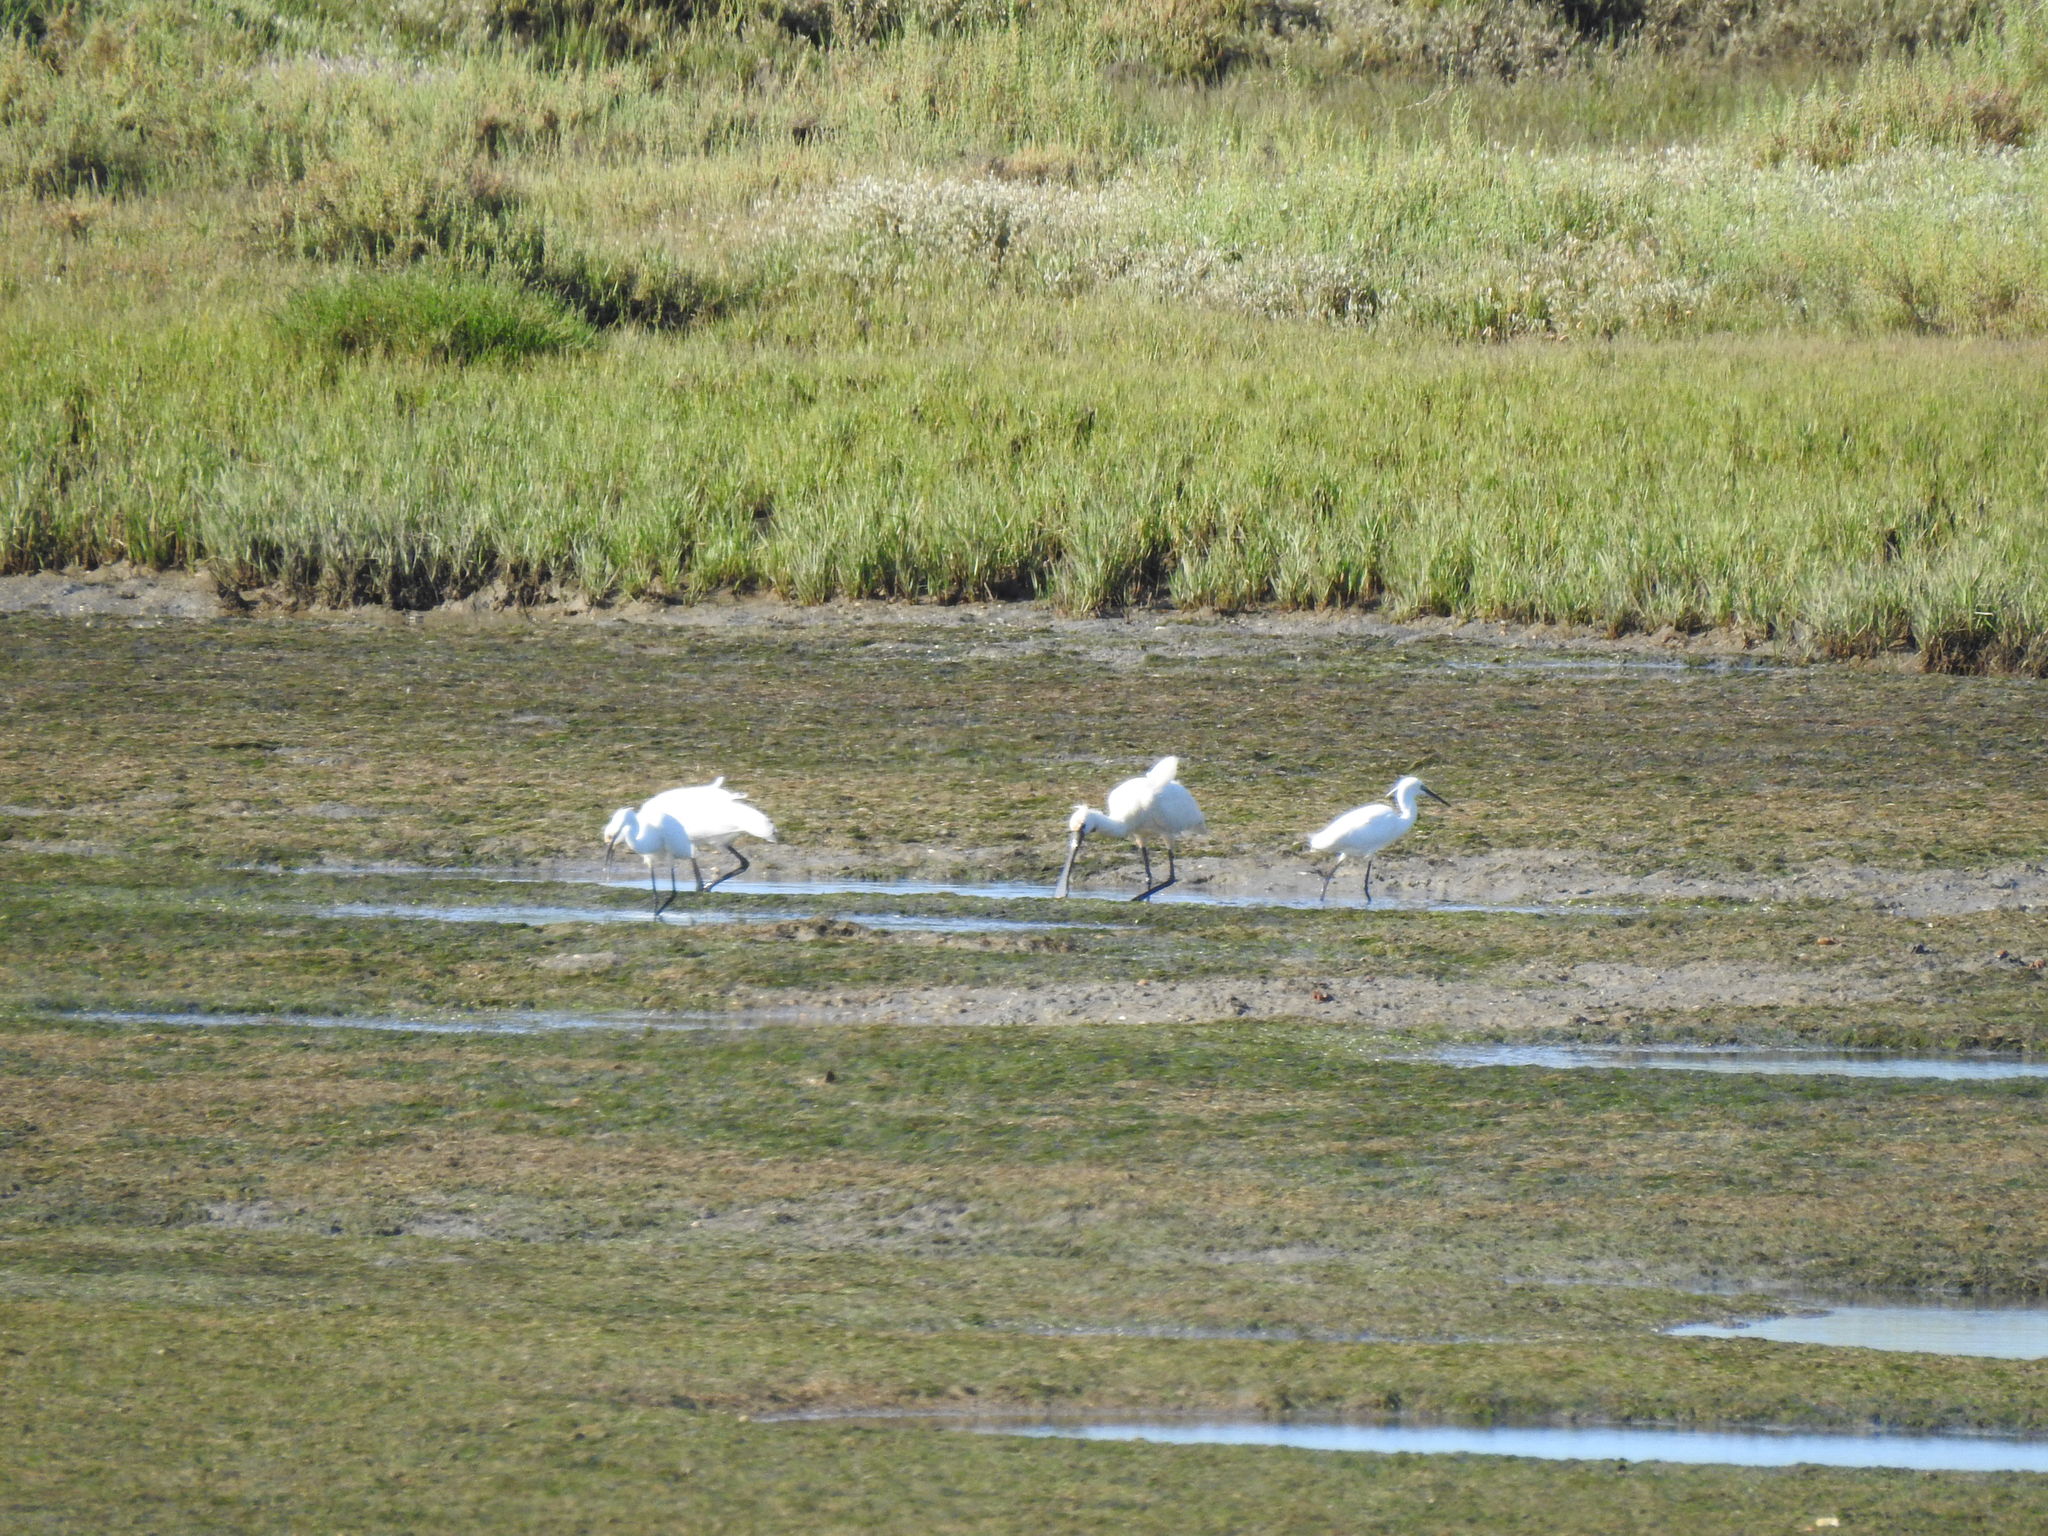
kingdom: Animalia
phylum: Chordata
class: Aves
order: Pelecaniformes
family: Ardeidae
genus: Egretta
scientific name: Egretta garzetta
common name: Little egret
